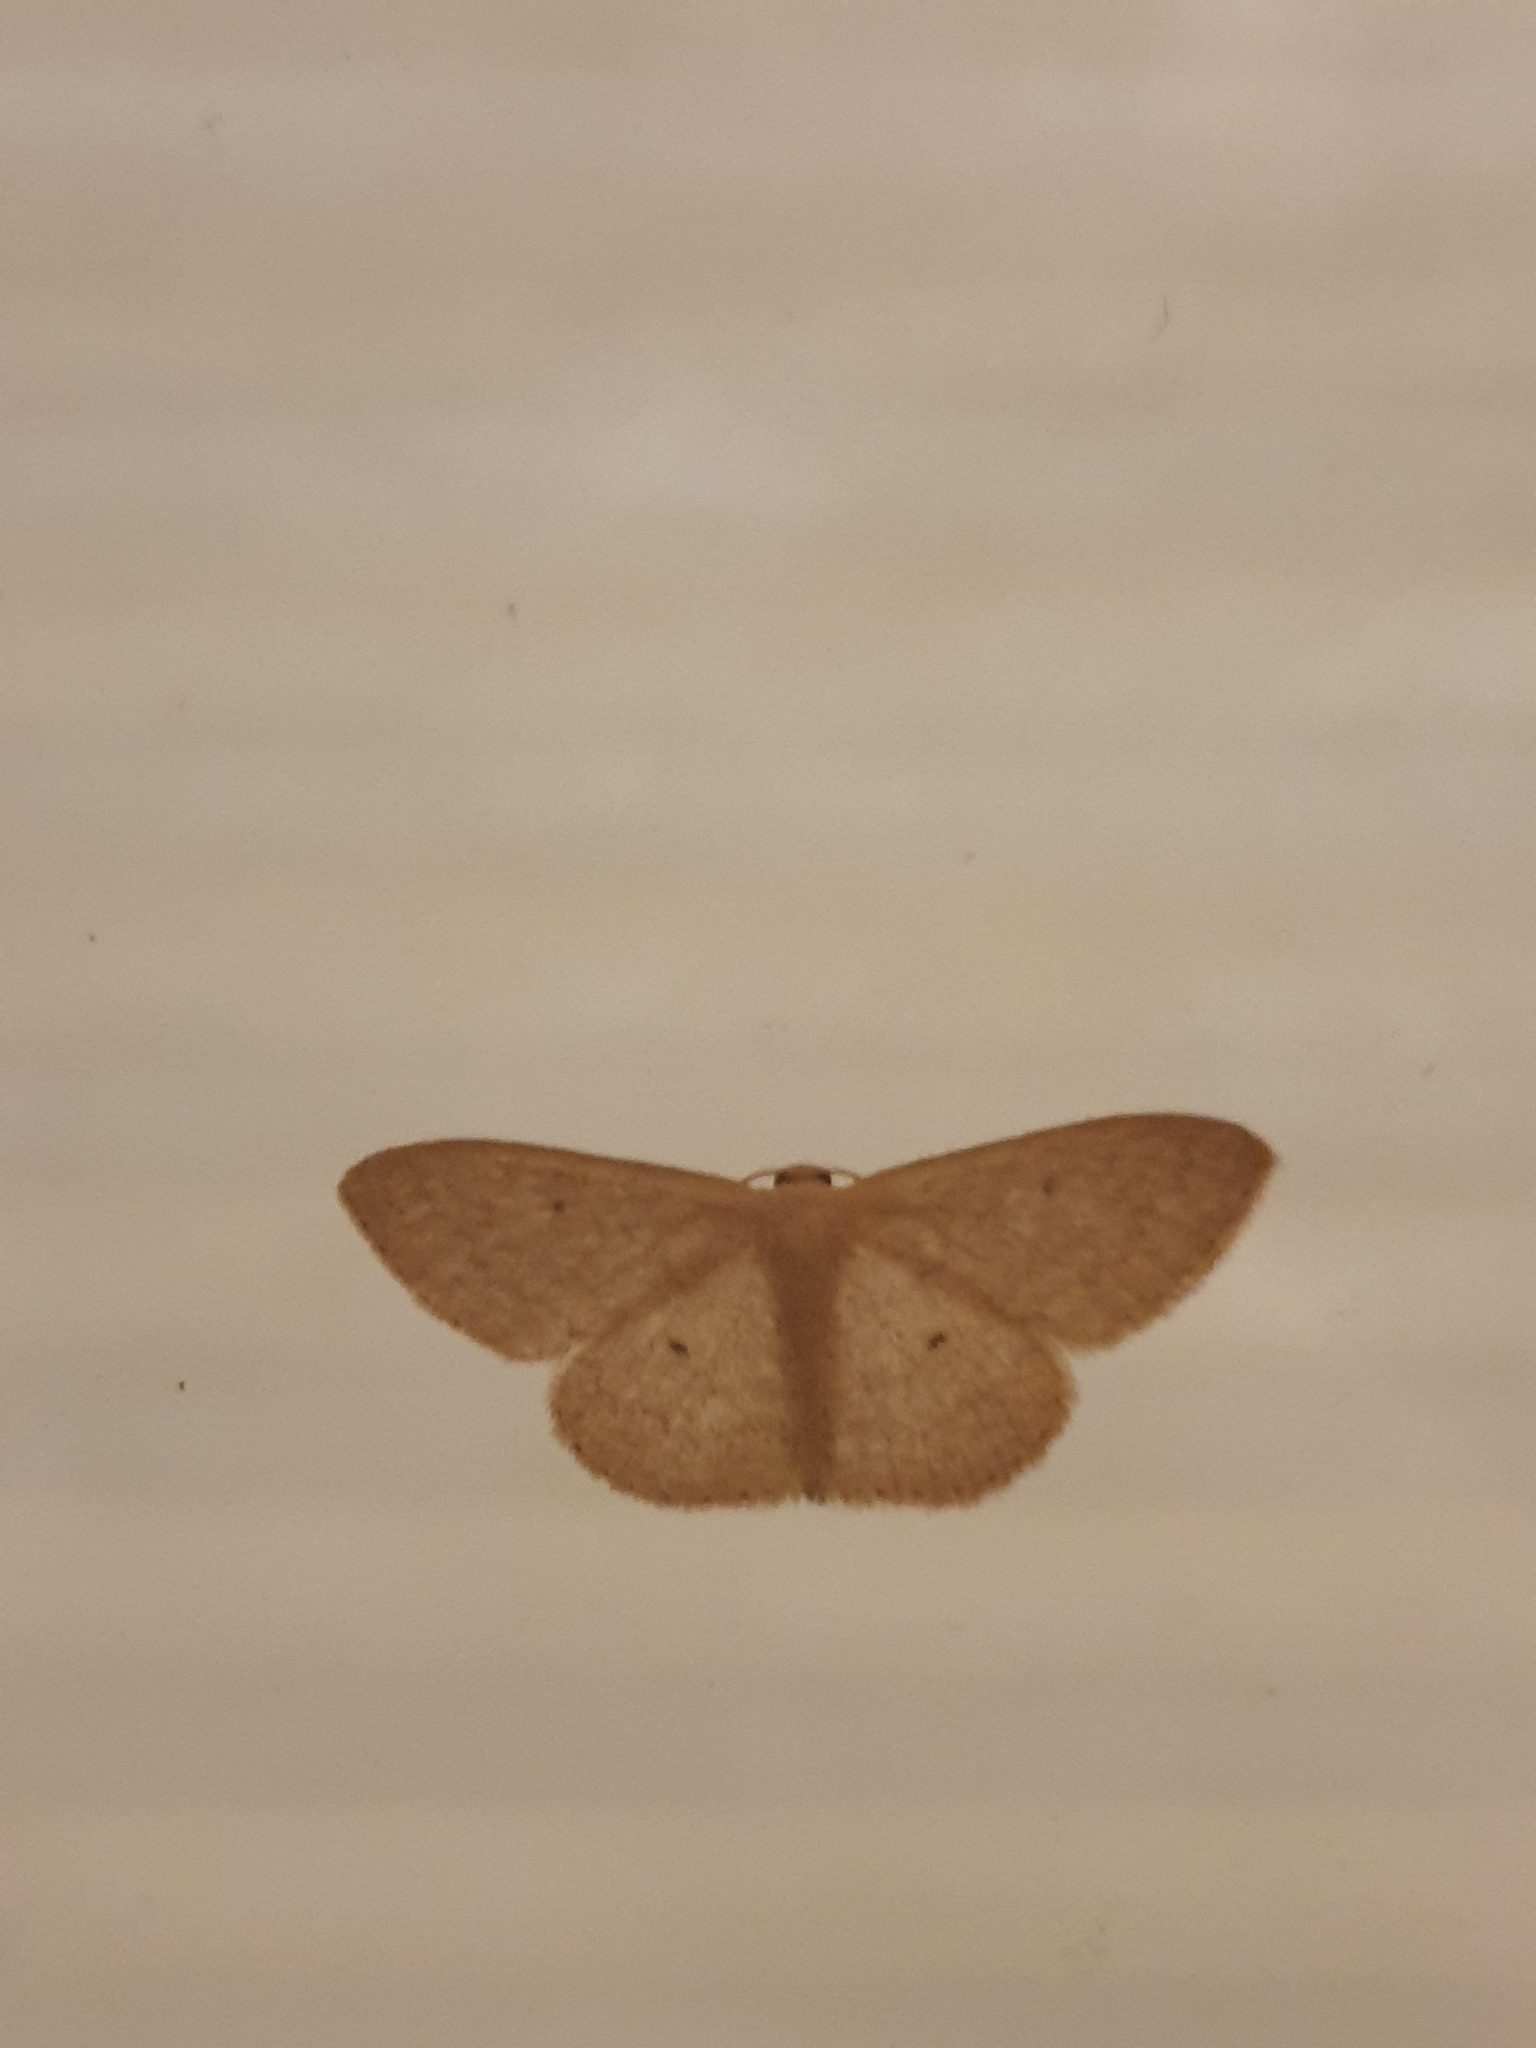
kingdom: Animalia
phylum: Arthropoda
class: Insecta
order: Lepidoptera
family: Geometridae
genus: Scopula
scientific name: Scopula optivata
